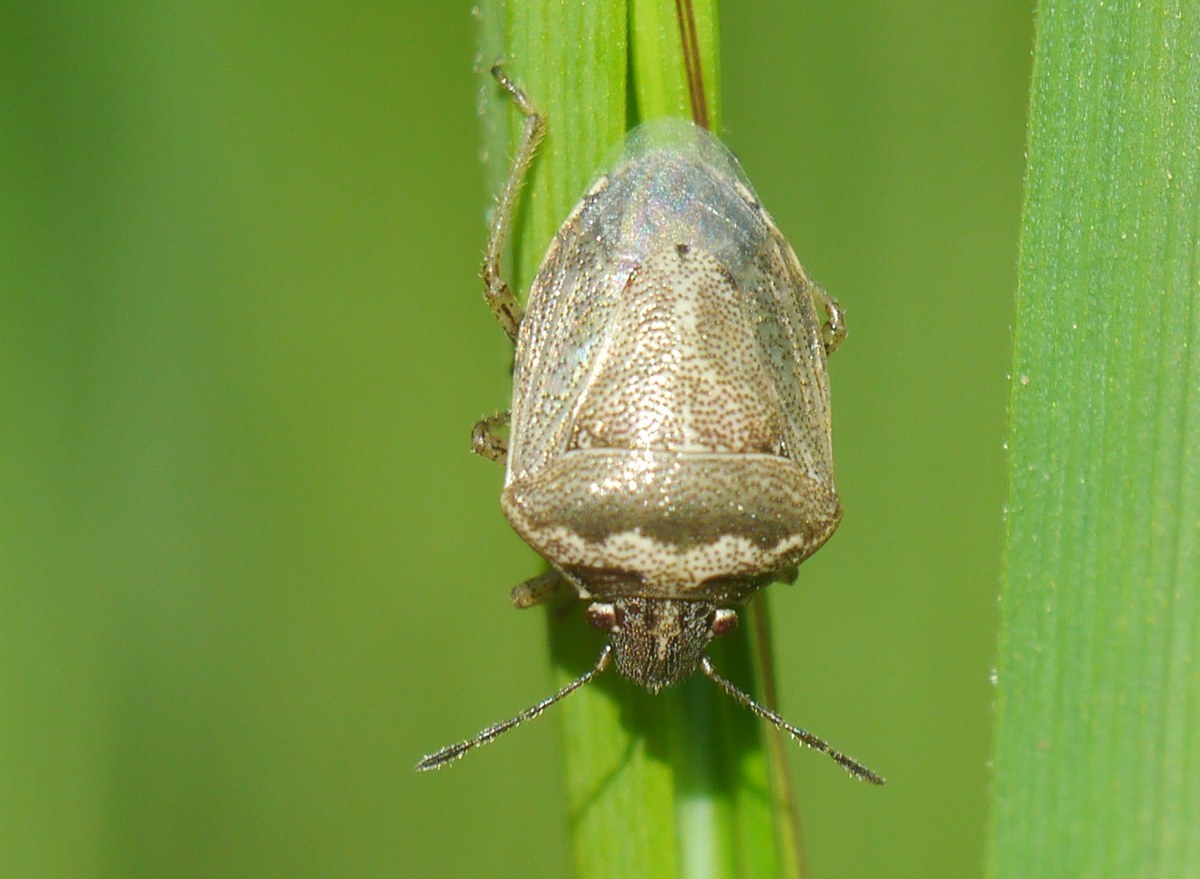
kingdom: Animalia
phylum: Arthropoda
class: Insecta
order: Hemiptera
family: Pentatomidae
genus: Eysarcoris
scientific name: Eysarcoris ventralis
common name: White-spotted stink bug
